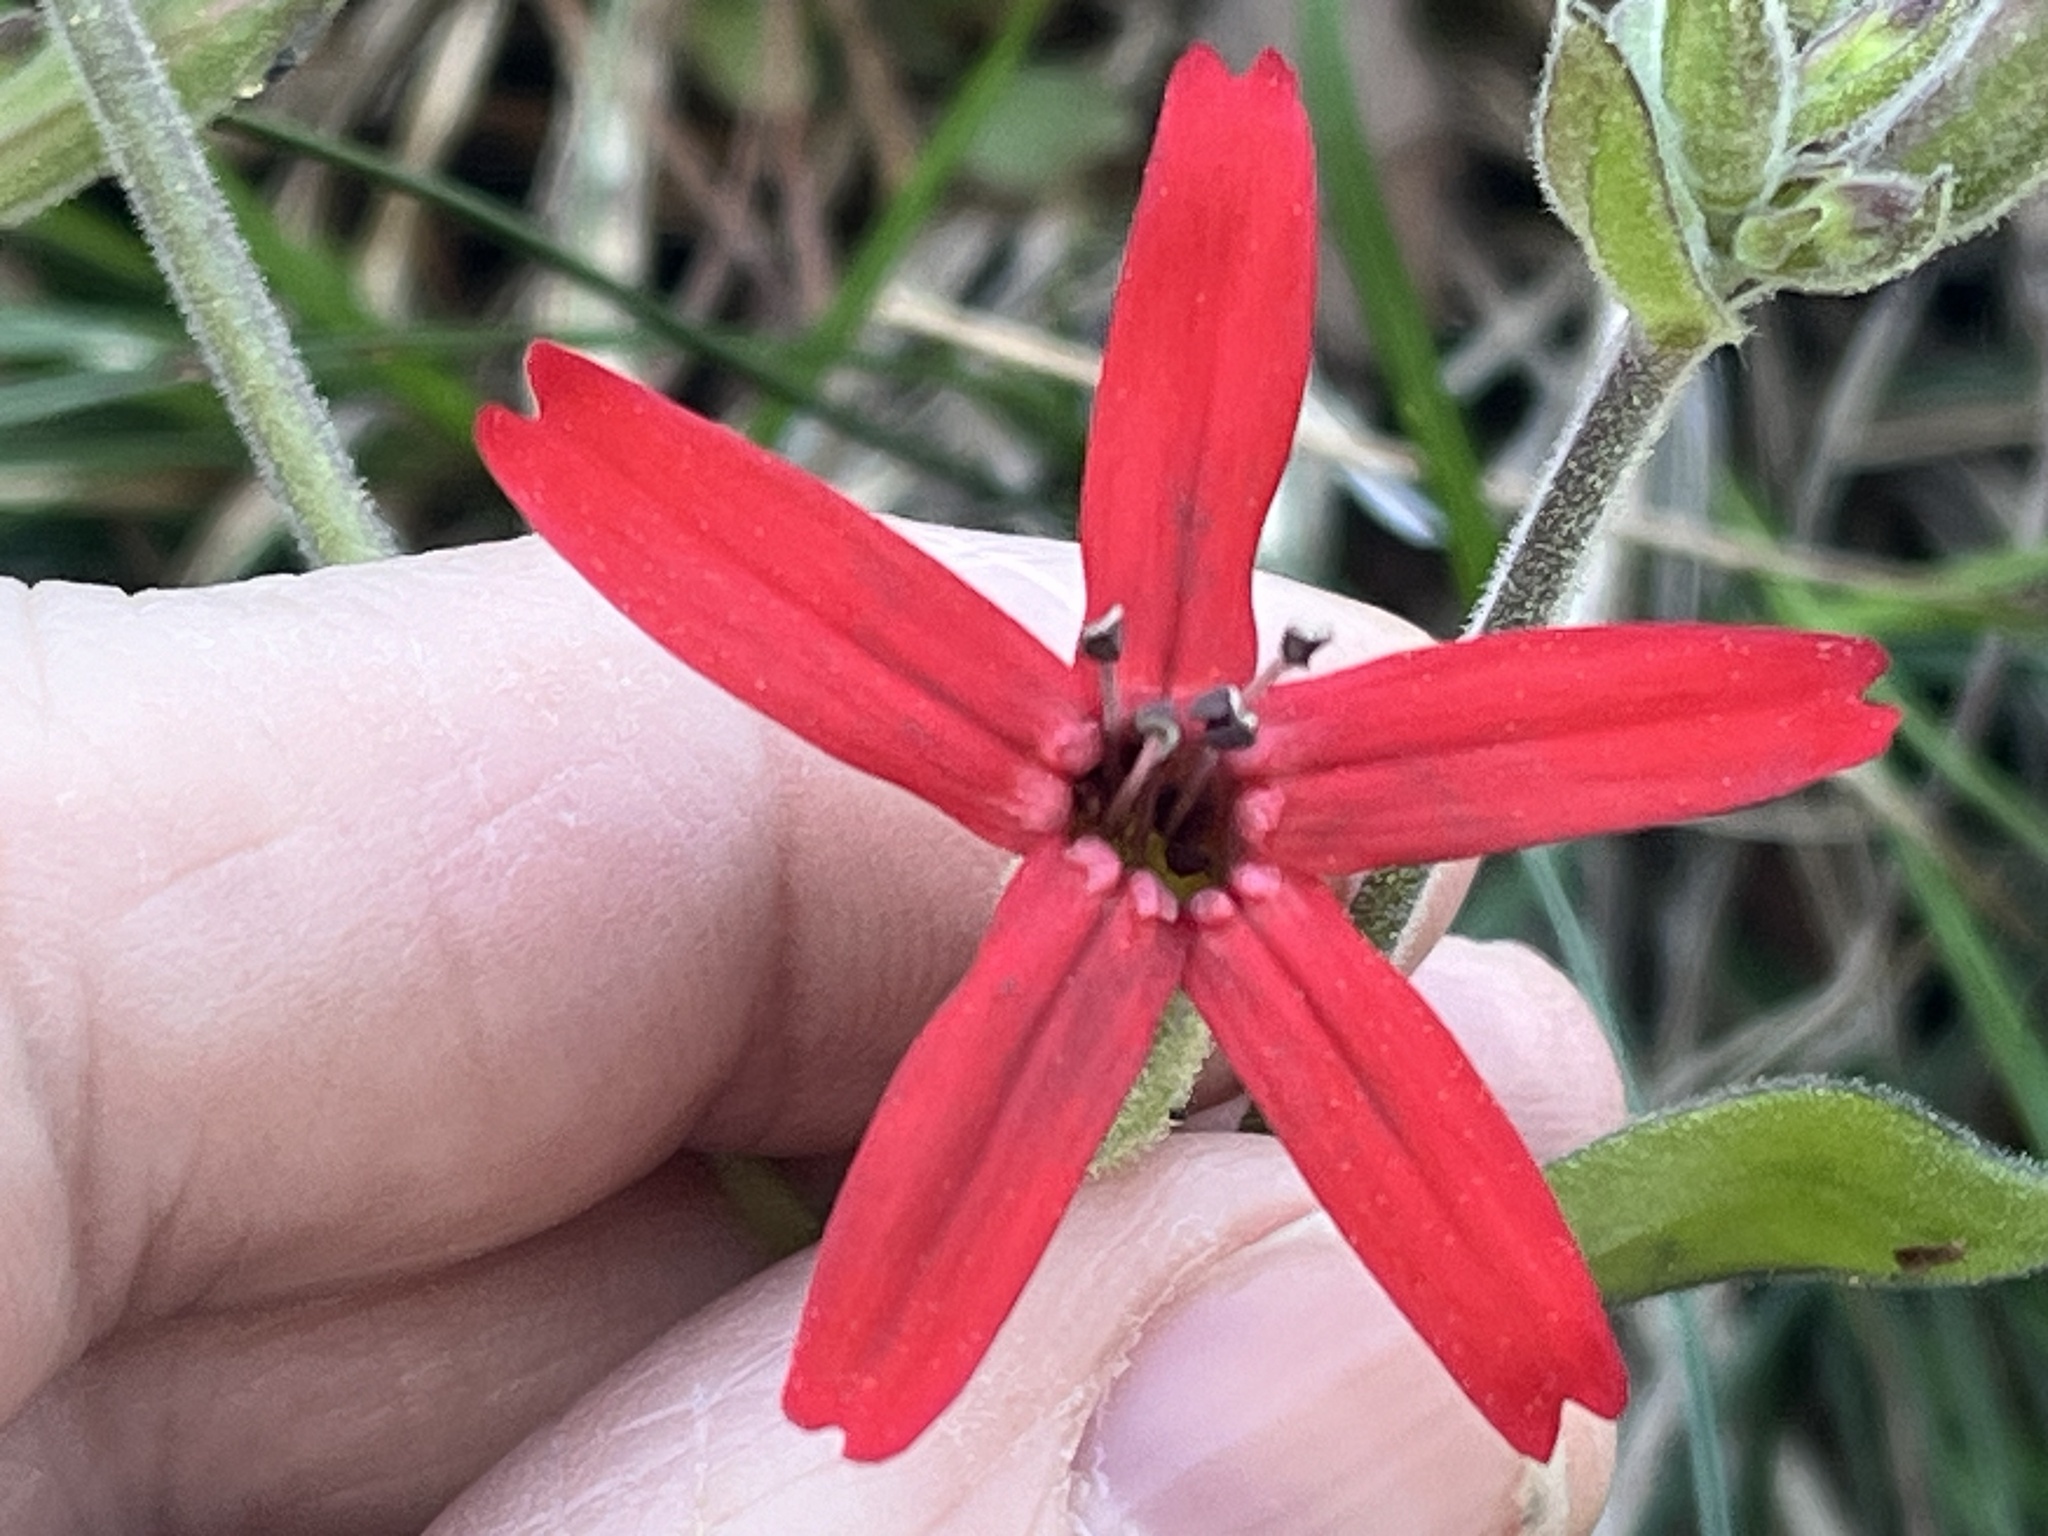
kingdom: Plantae
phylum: Tracheophyta
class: Magnoliopsida
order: Caryophyllales
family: Caryophyllaceae
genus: Silene
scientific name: Silene virginica
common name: Fire-pink
